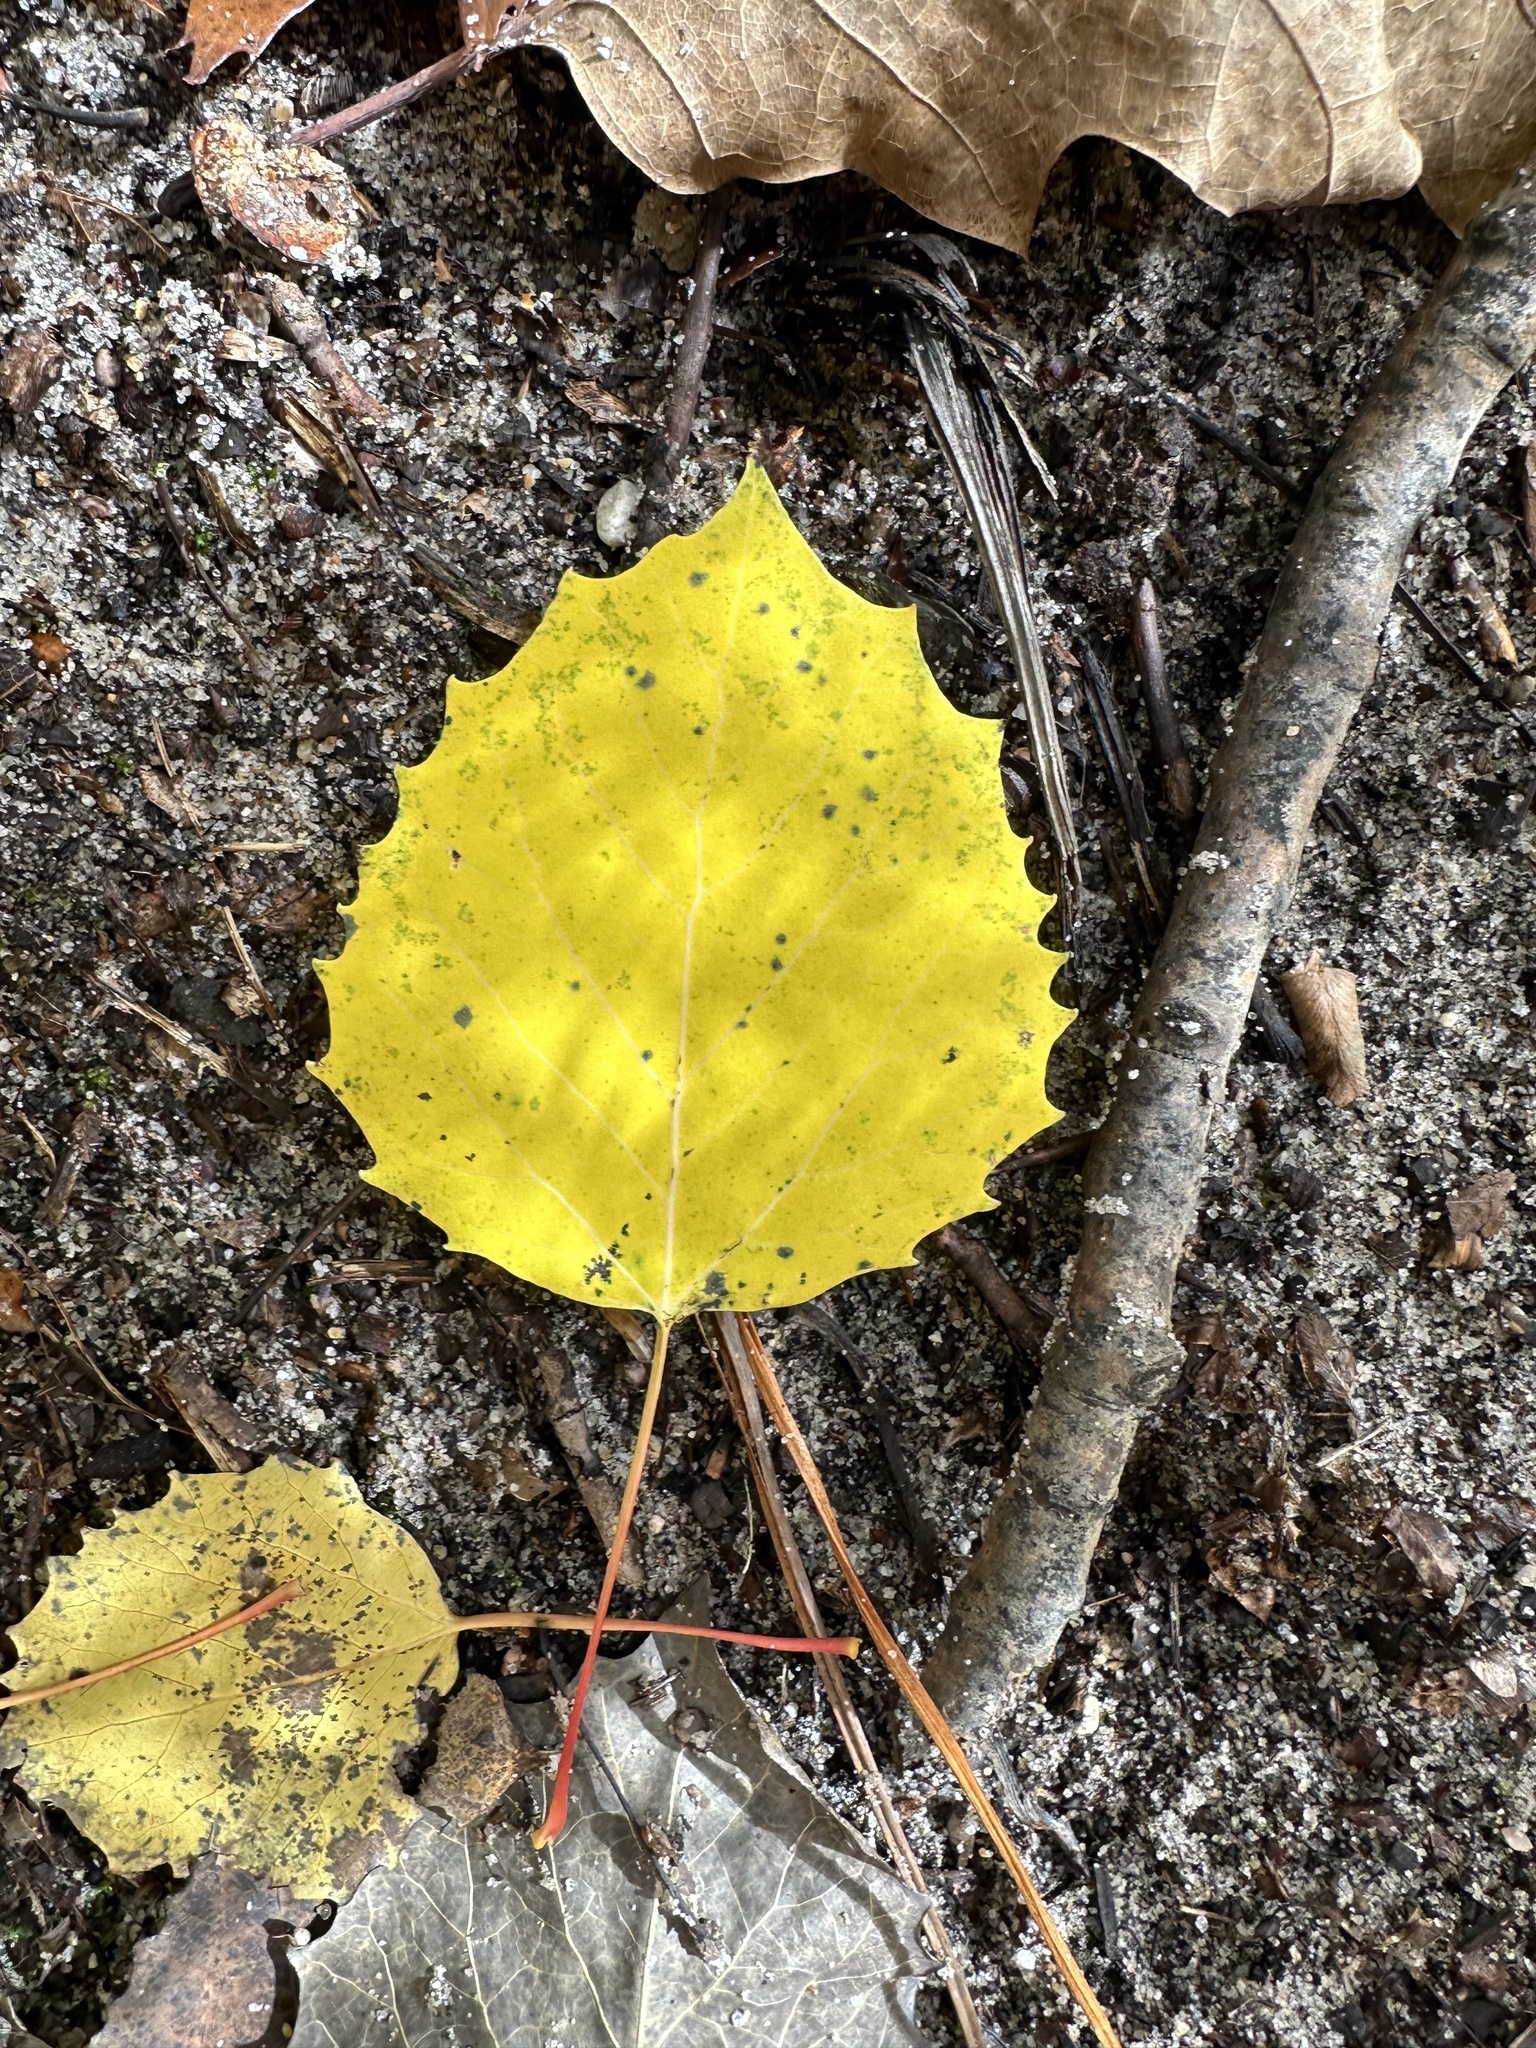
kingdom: Plantae
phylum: Tracheophyta
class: Magnoliopsida
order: Malpighiales
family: Salicaceae
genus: Populus
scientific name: Populus grandidentata
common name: Bigtooth aspen
